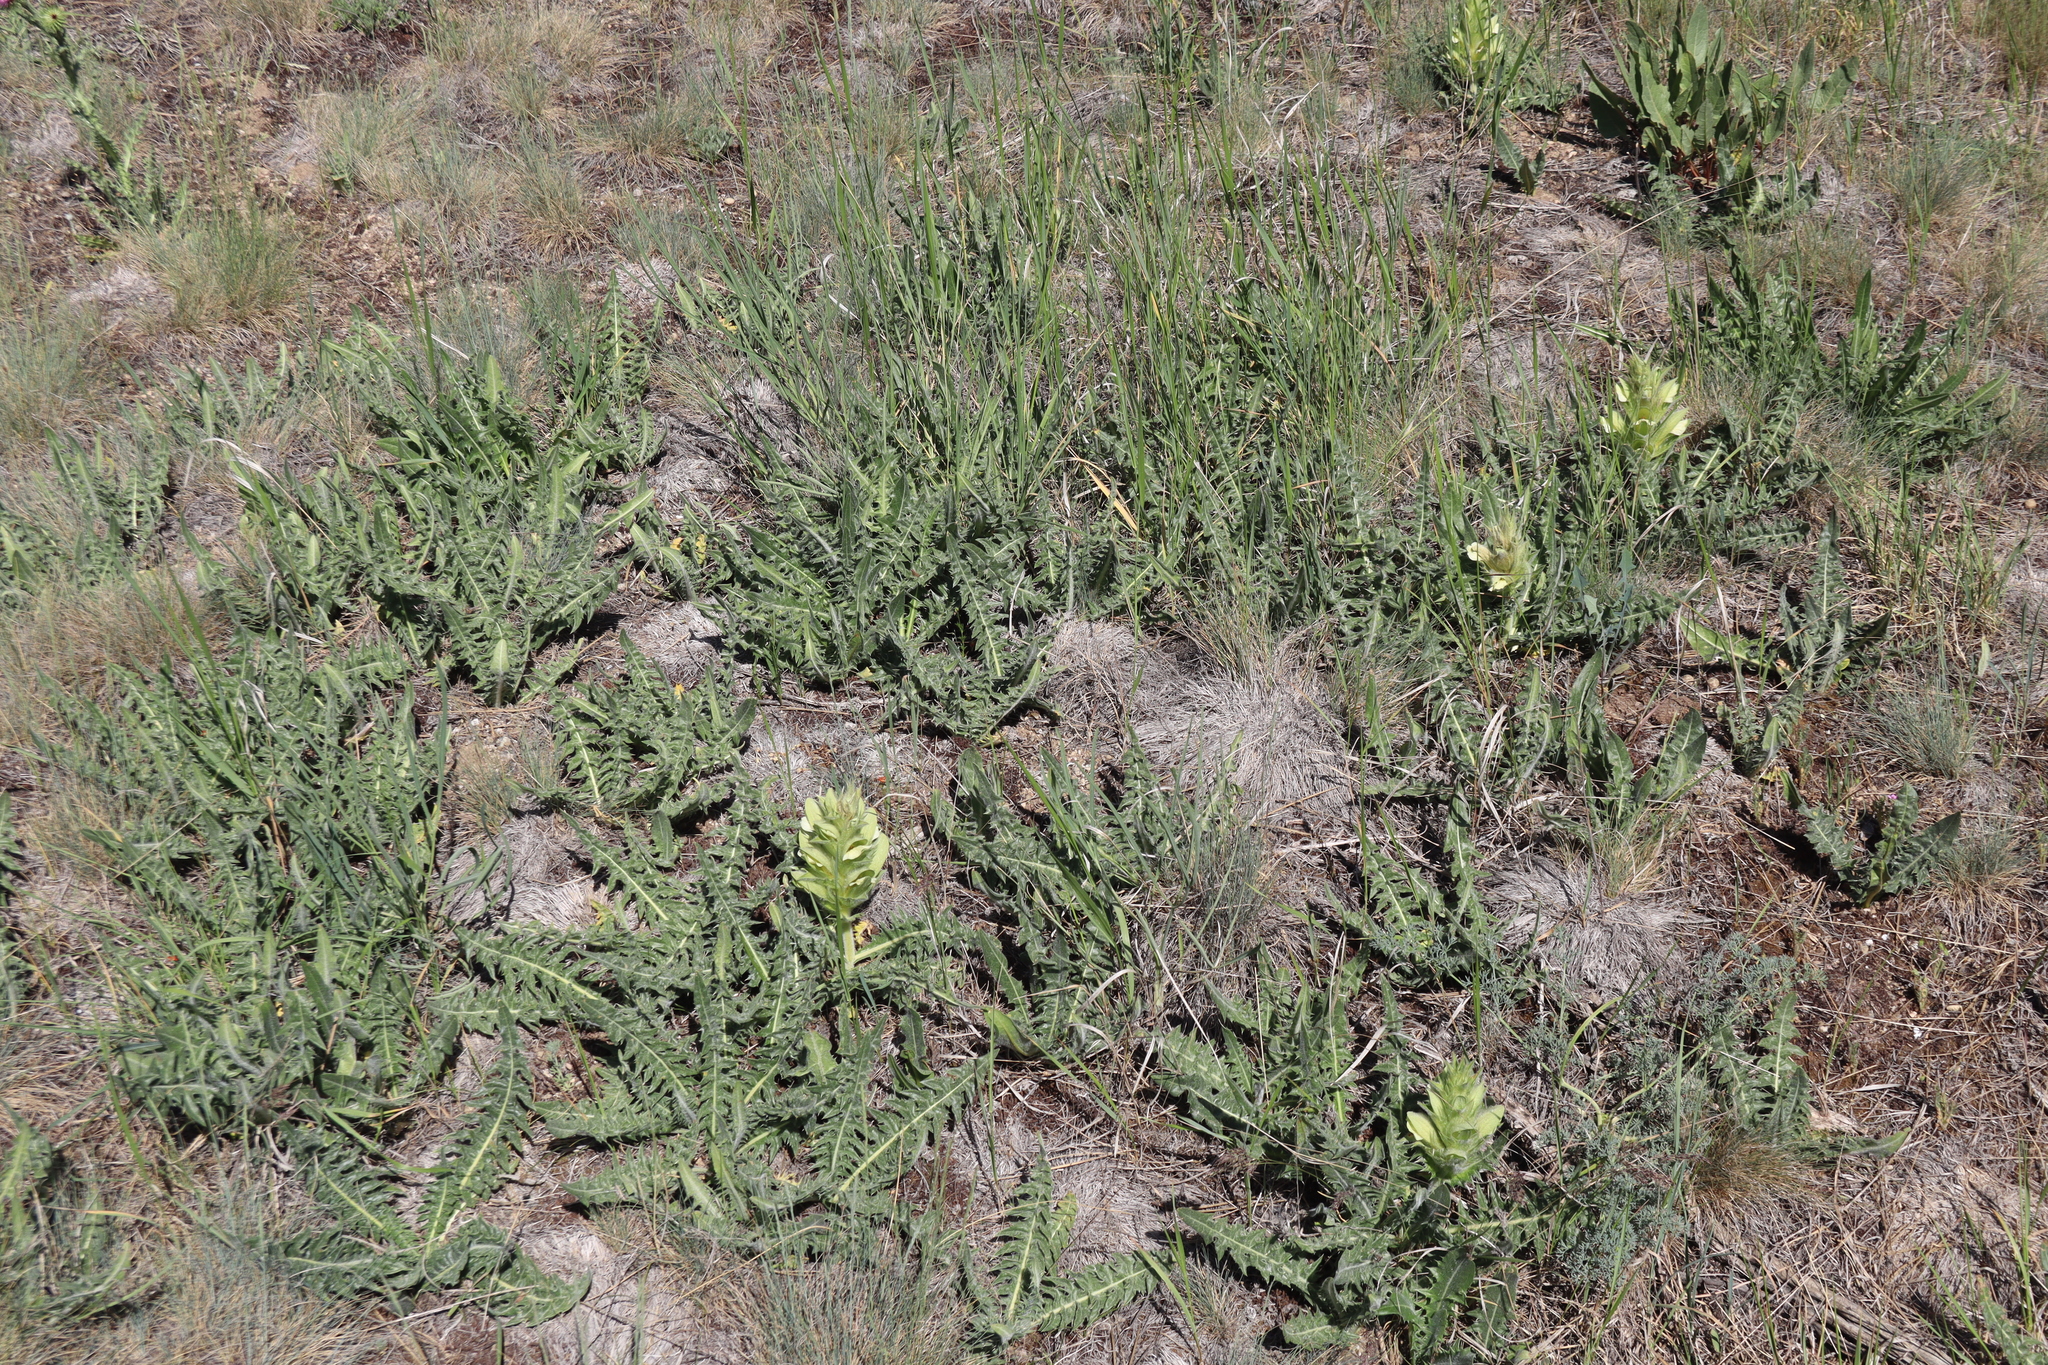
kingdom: Plantae
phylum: Tracheophyta
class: Magnoliopsida
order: Lamiales
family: Acanthaceae
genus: Acanthus
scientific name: Acanthus hirsutus
